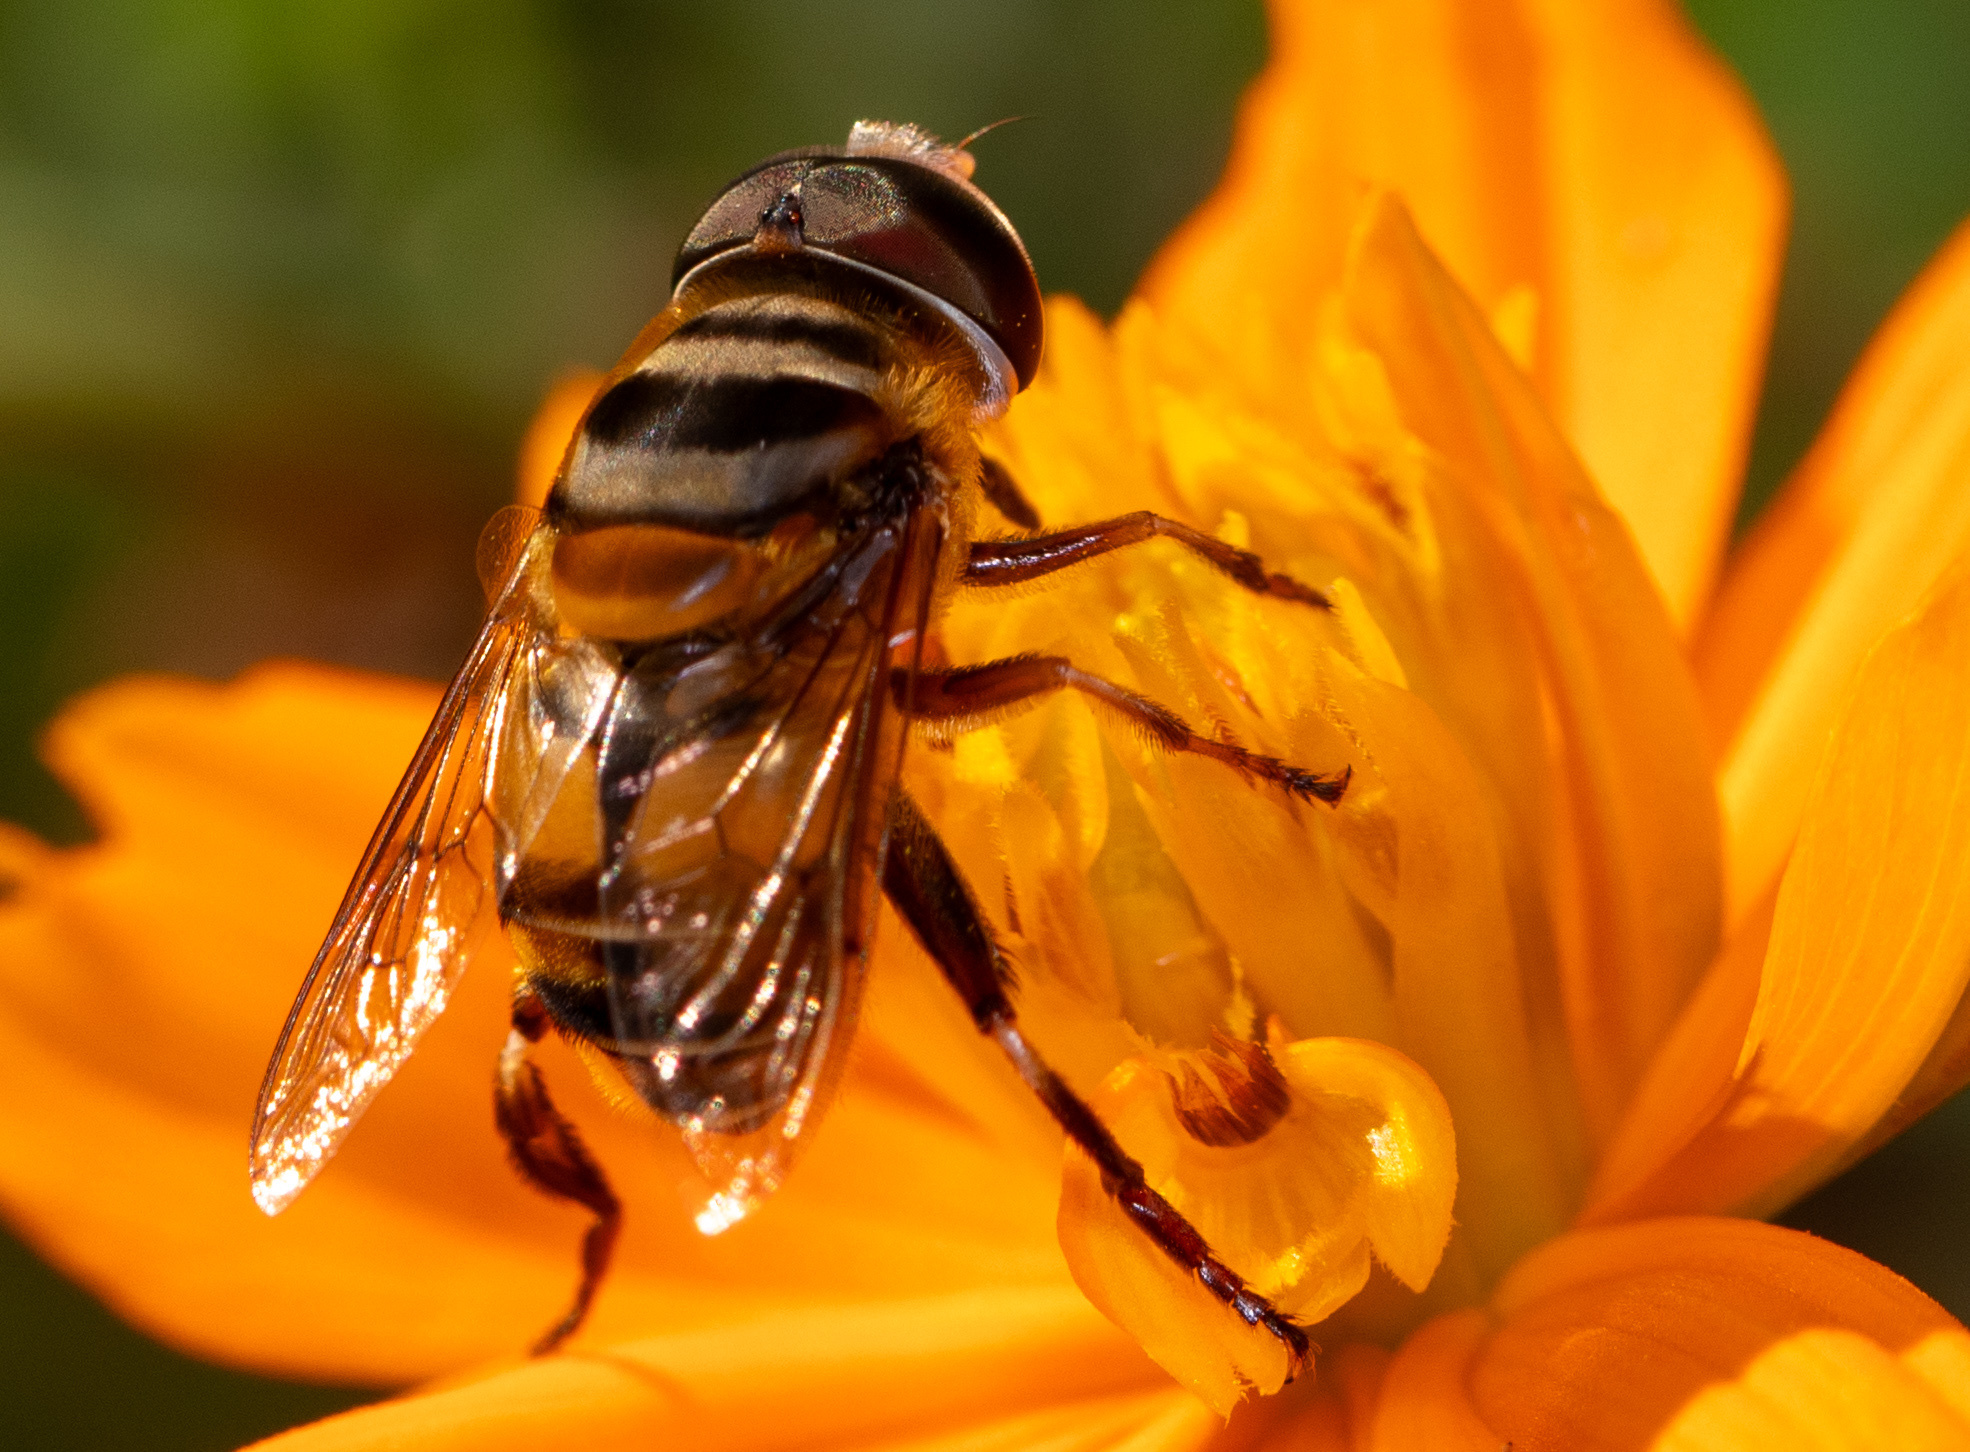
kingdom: Animalia
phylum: Arthropoda
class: Insecta
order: Diptera
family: Syrphidae
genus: Palpada
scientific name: Palpada vinetorum
